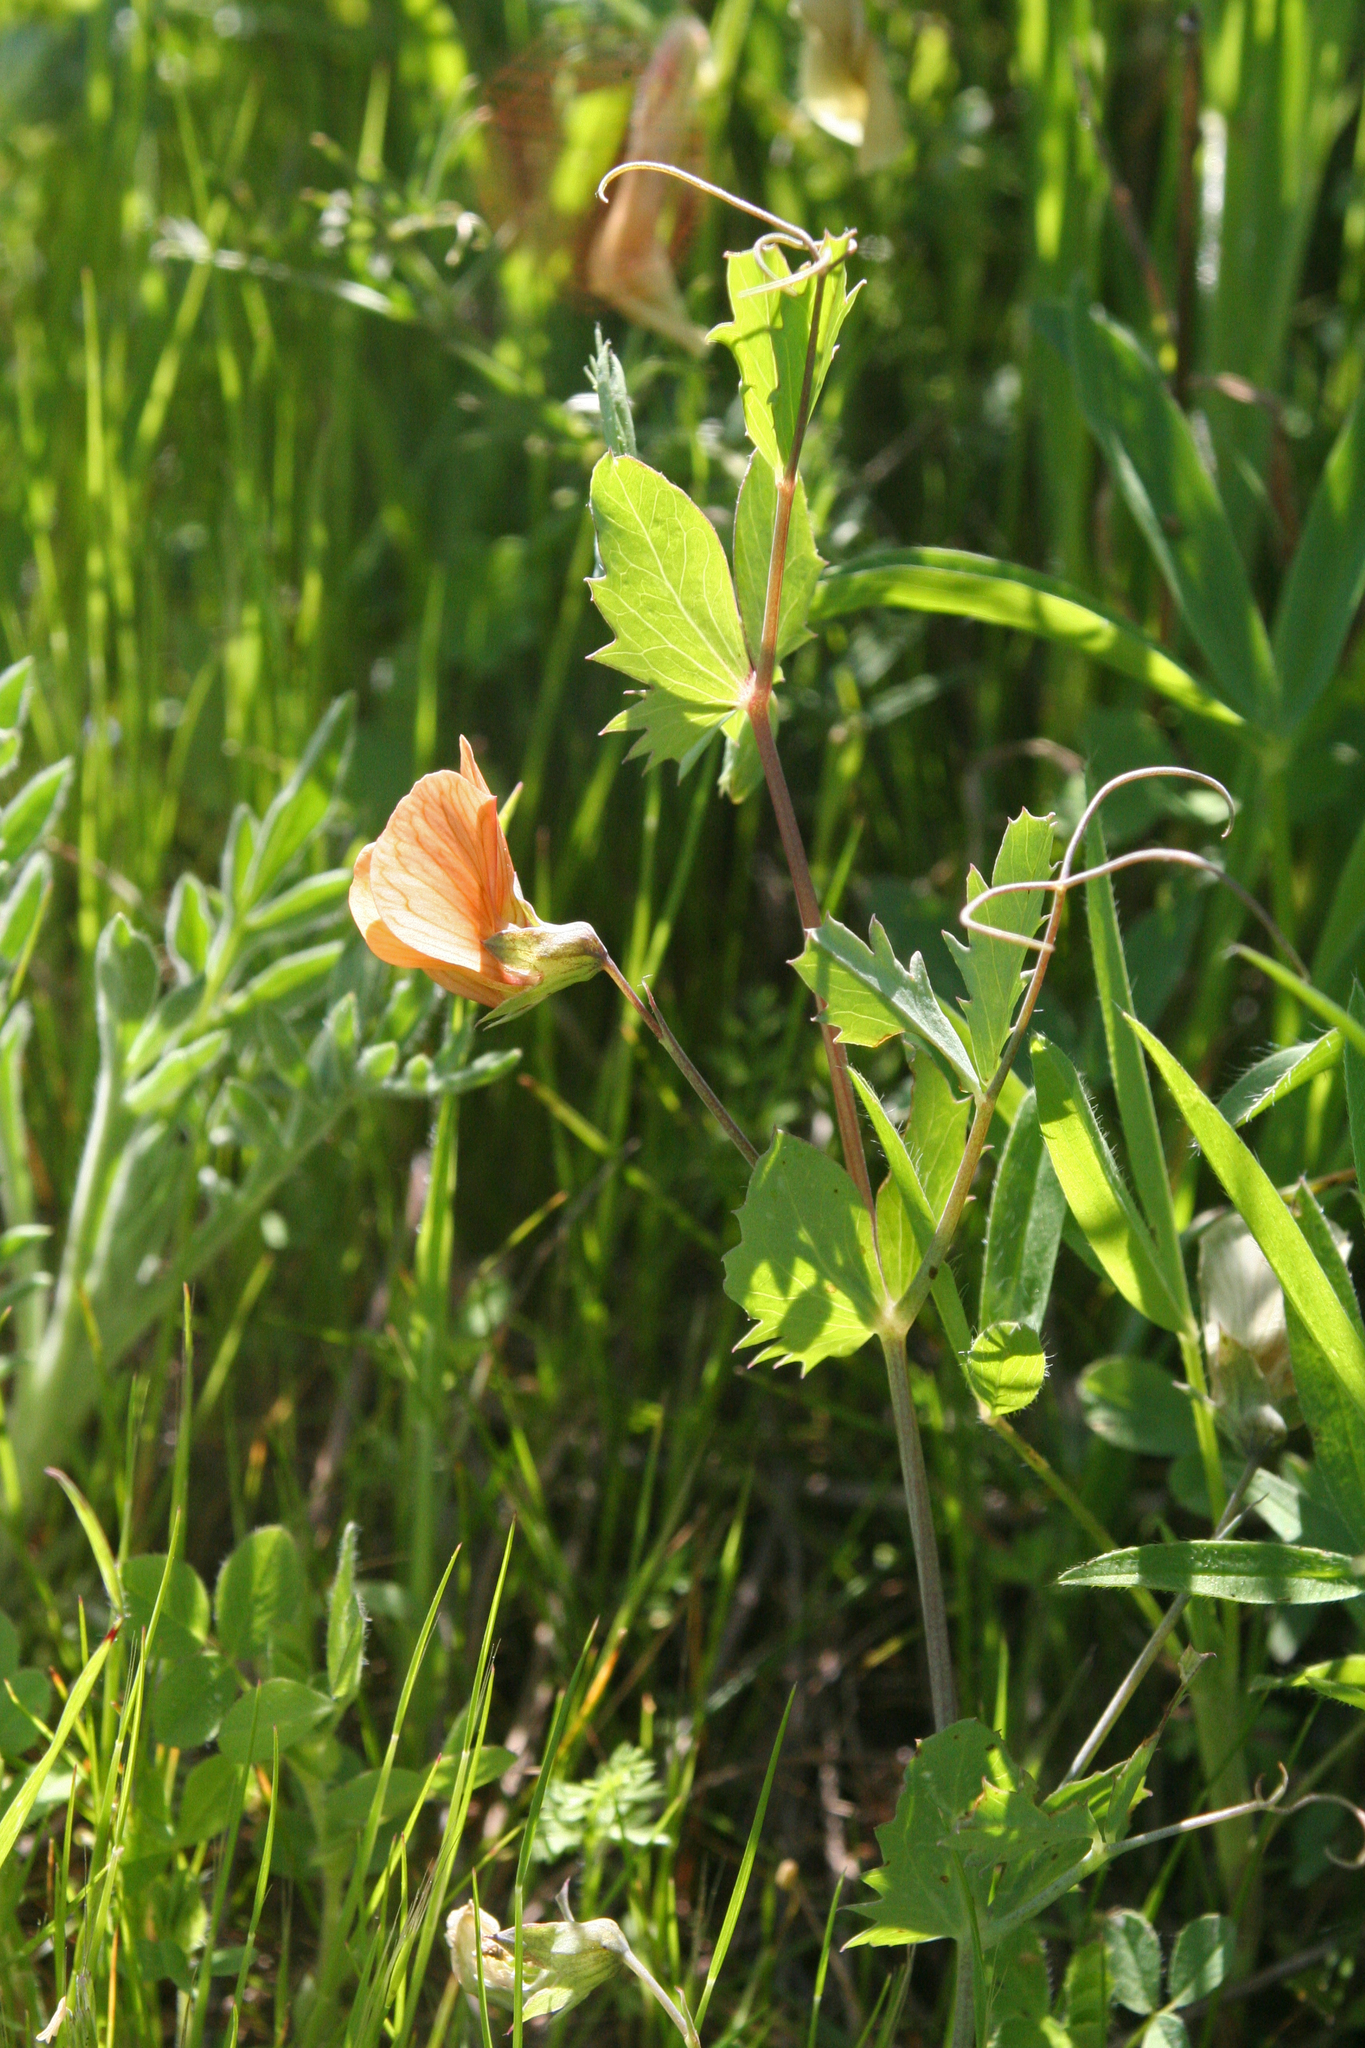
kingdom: Plantae
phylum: Tracheophyta
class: Magnoliopsida
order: Fabales
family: Fabaceae
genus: Lathyrus
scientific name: Lathyrus fulvus
